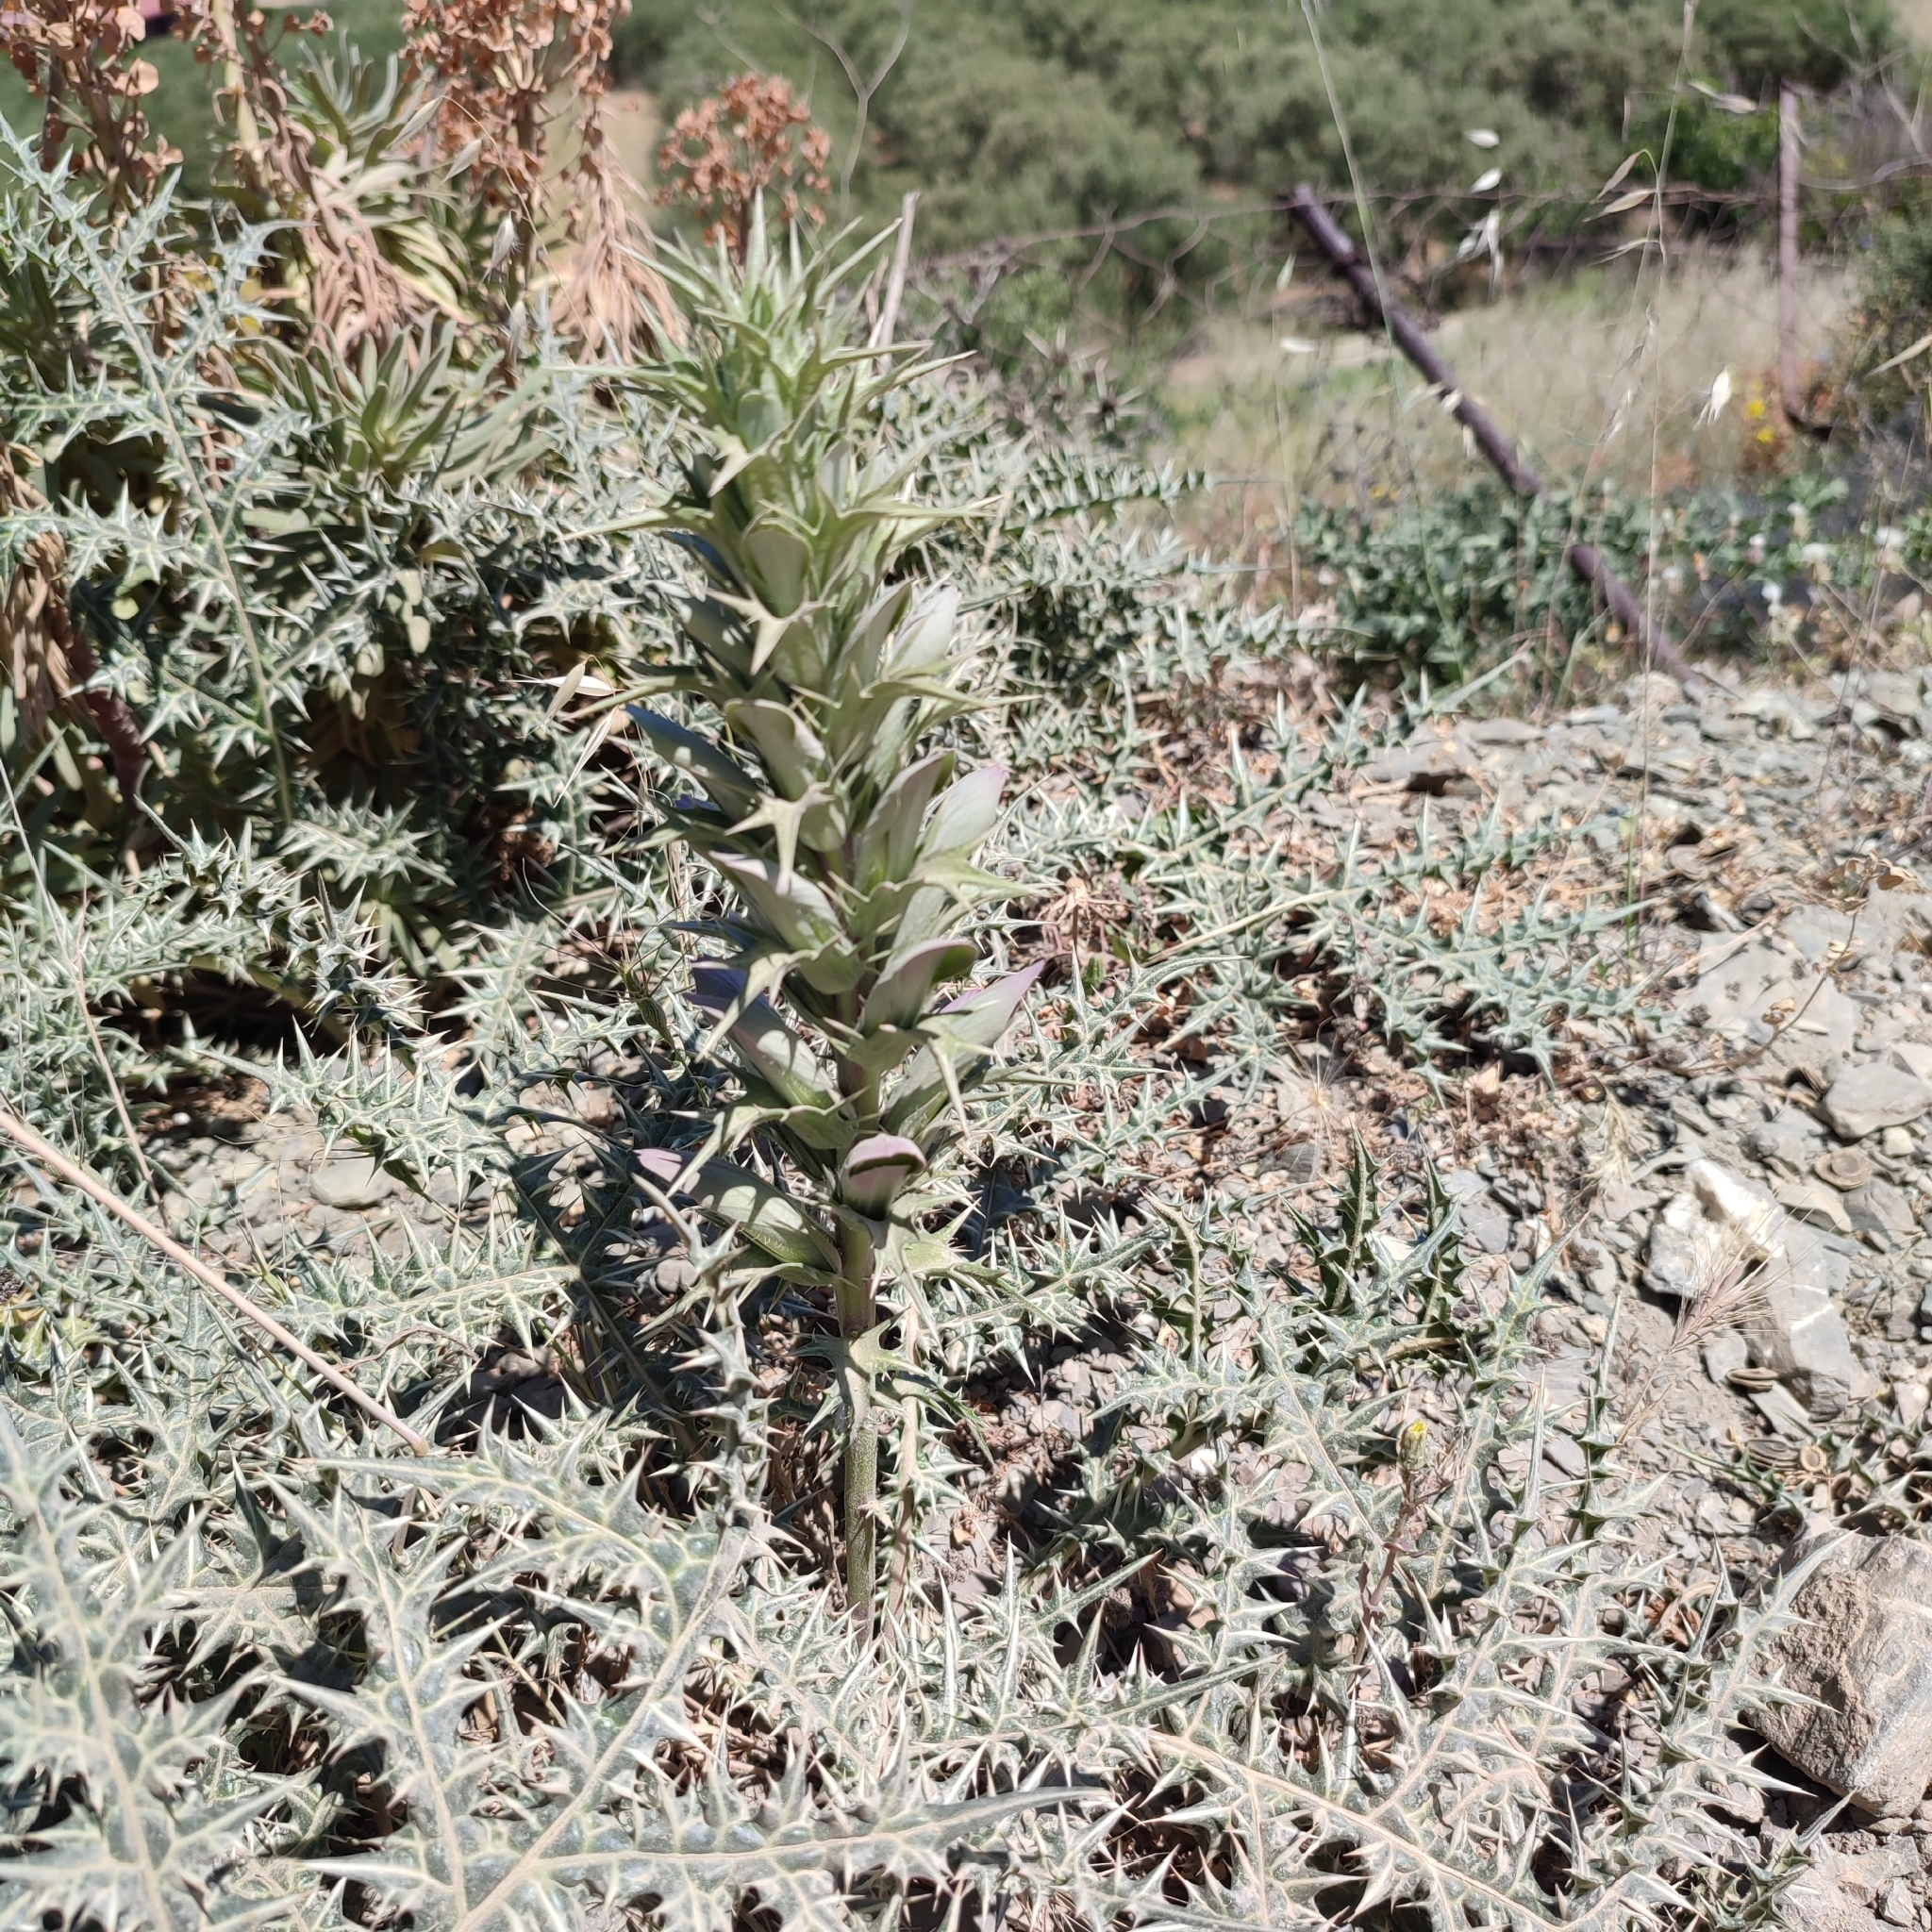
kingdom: Plantae
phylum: Tracheophyta
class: Magnoliopsida
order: Lamiales
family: Acanthaceae
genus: Acanthus
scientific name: Acanthus spinosus
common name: Spiny bear's-breech
